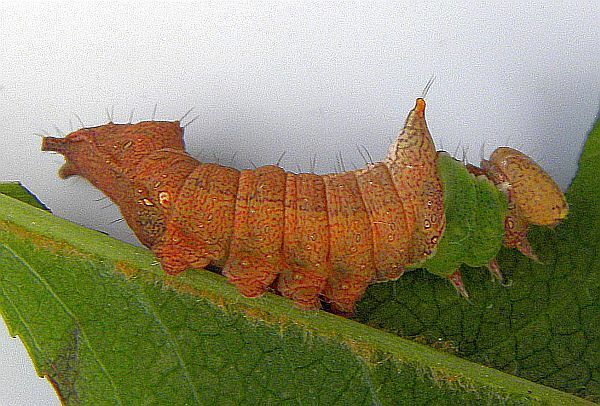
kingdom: Animalia
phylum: Arthropoda
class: Insecta
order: Lepidoptera
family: Notodontidae
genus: Schizura
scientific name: Schizura
